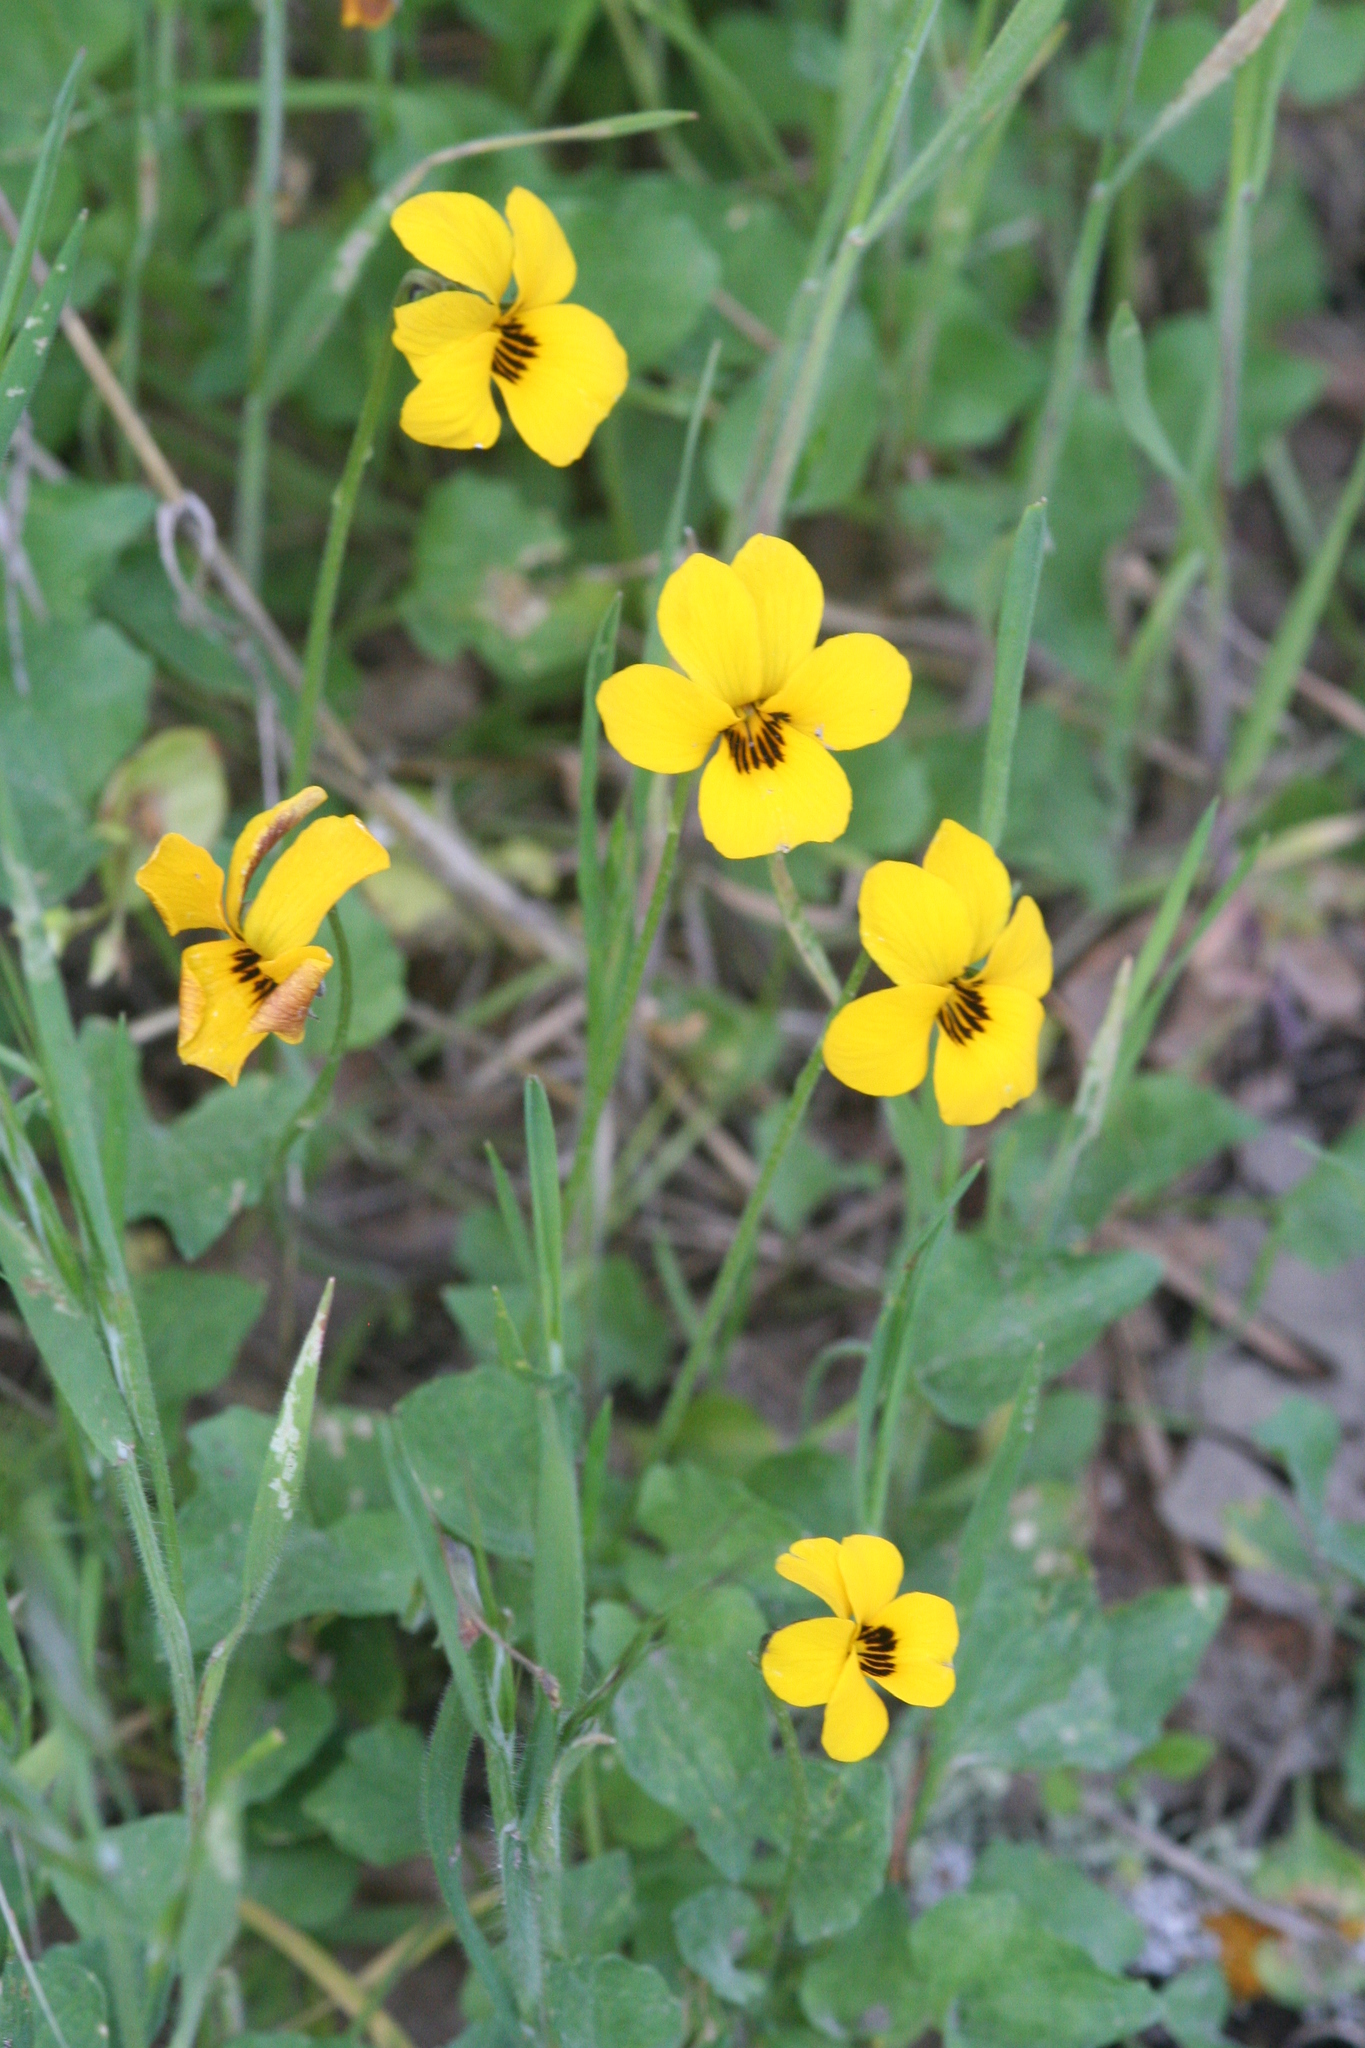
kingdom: Plantae
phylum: Tracheophyta
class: Magnoliopsida
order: Malpighiales
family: Violaceae
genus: Viola
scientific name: Viola pedunculata
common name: California golden violet
